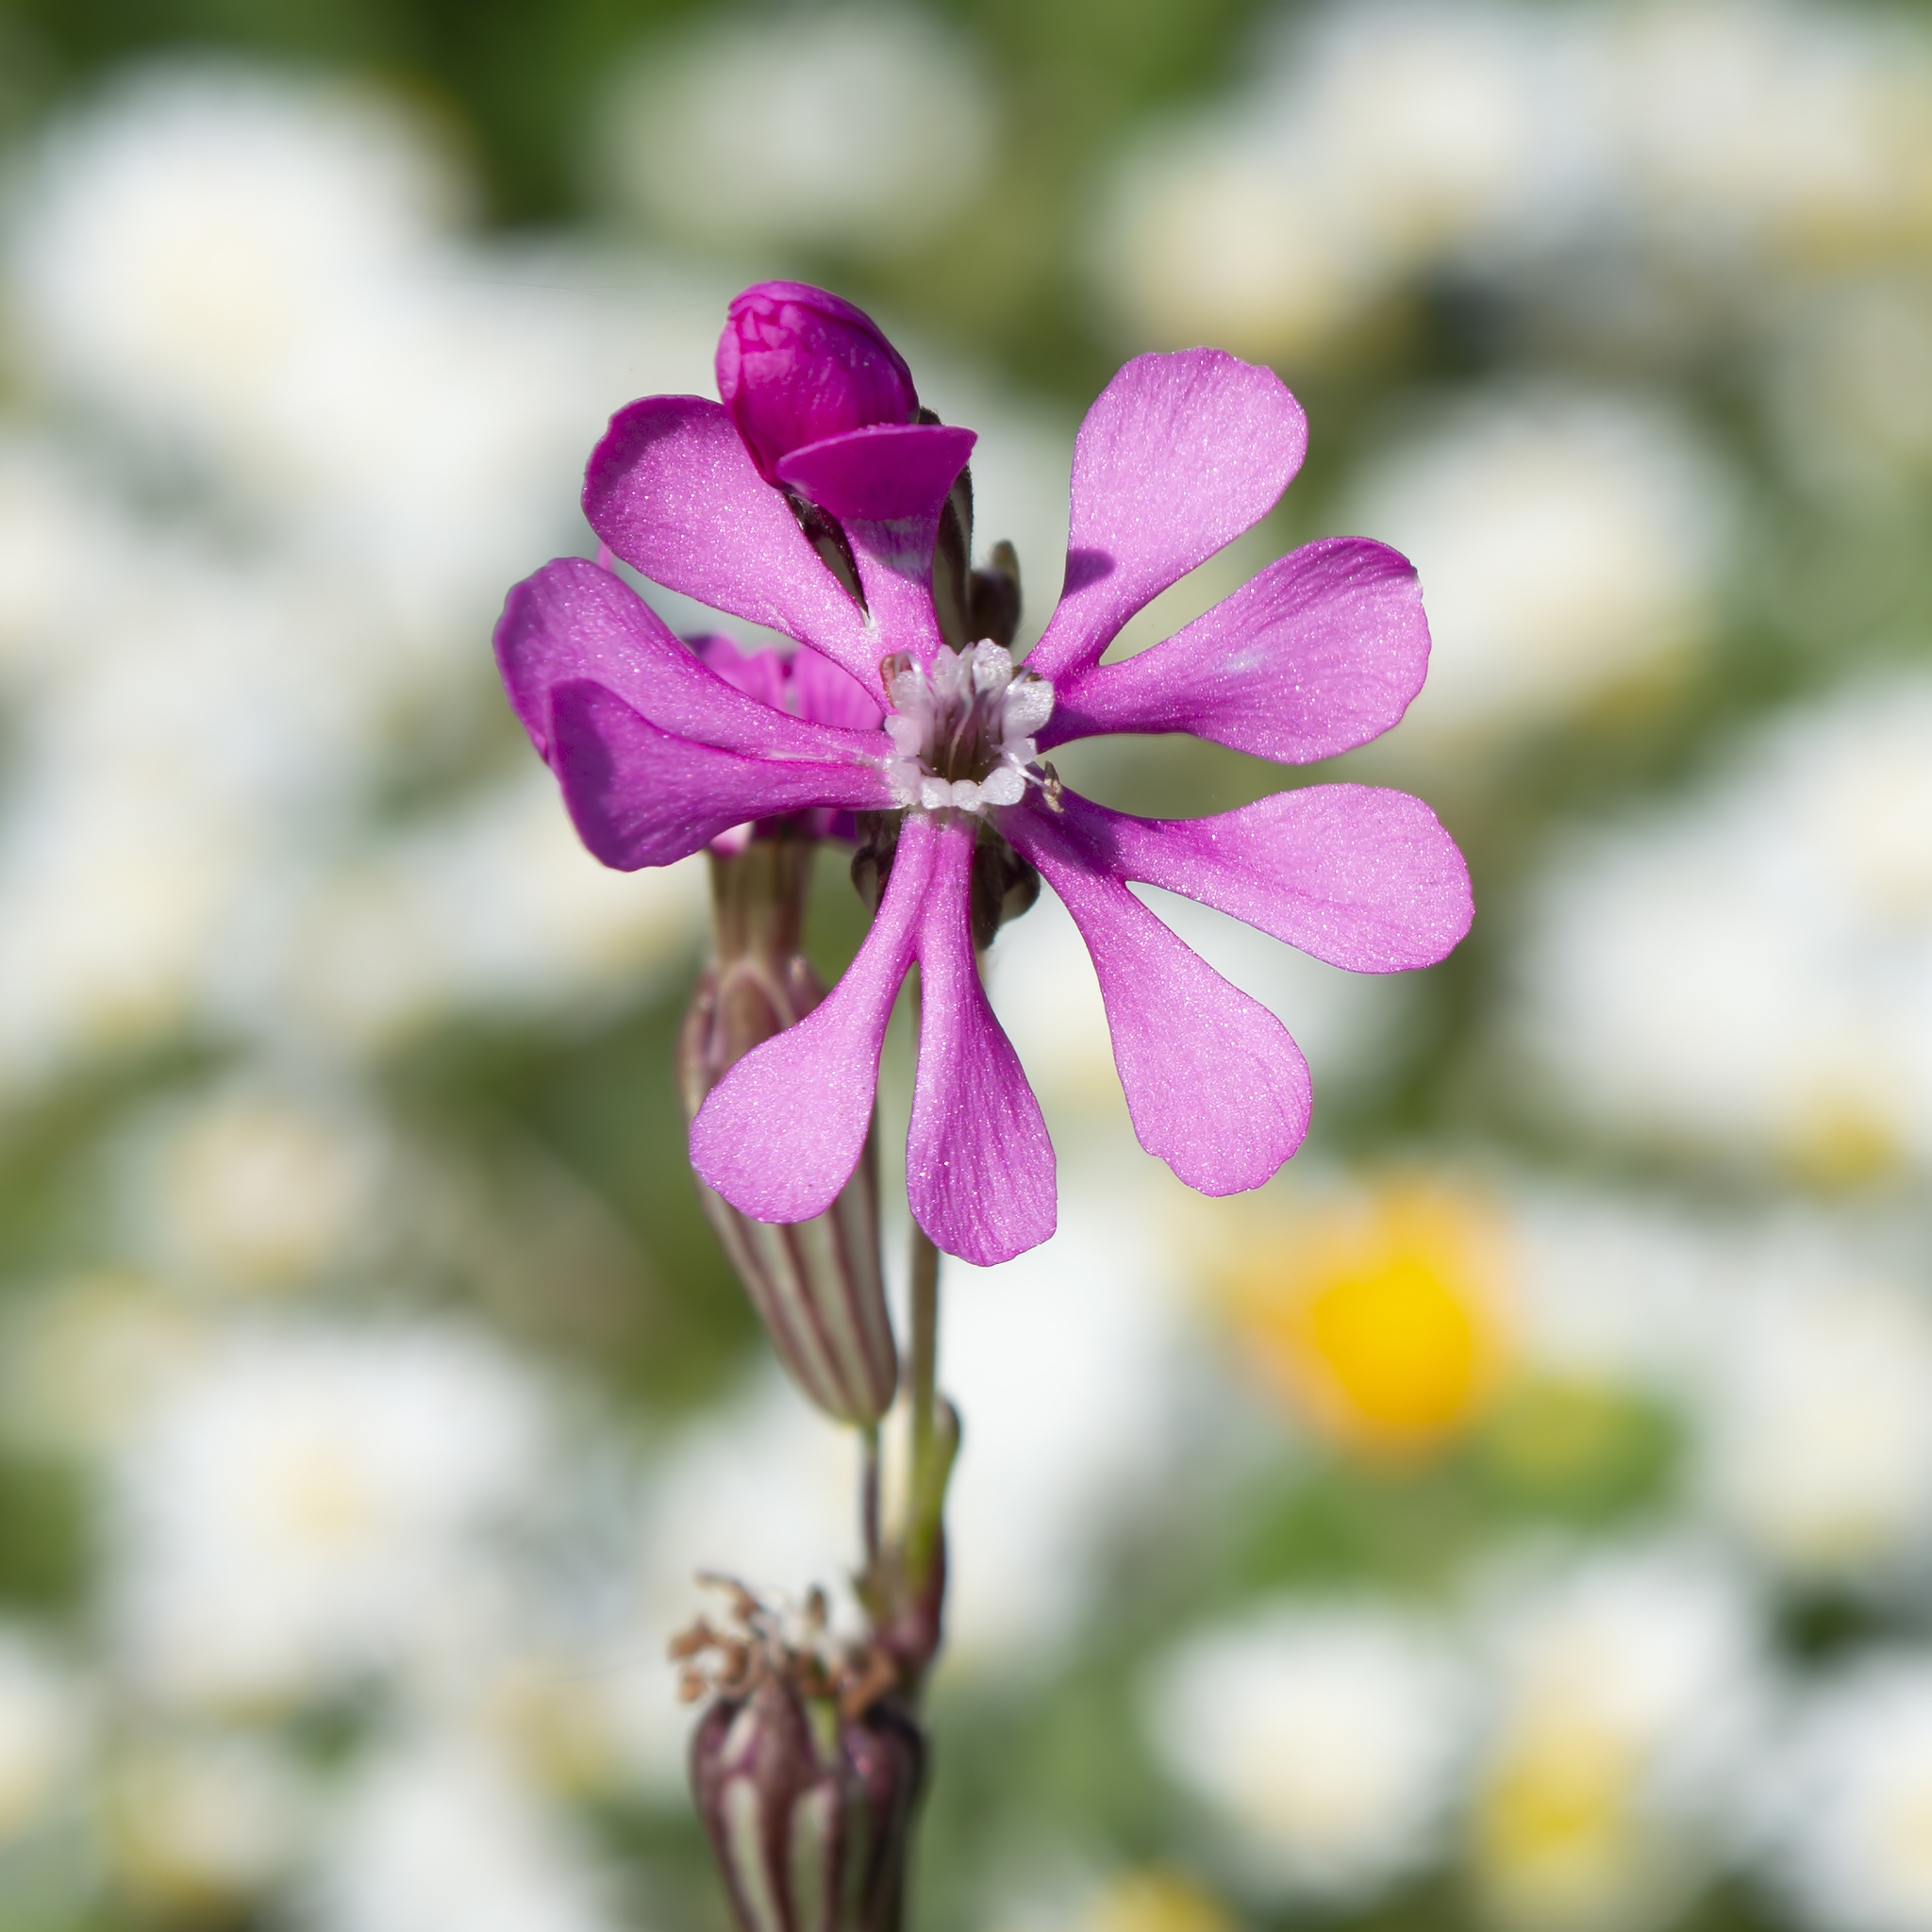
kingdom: Plantae
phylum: Tracheophyta
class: Magnoliopsida
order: Caryophyllales
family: Caryophyllaceae
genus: Silene
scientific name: Silene colorata
